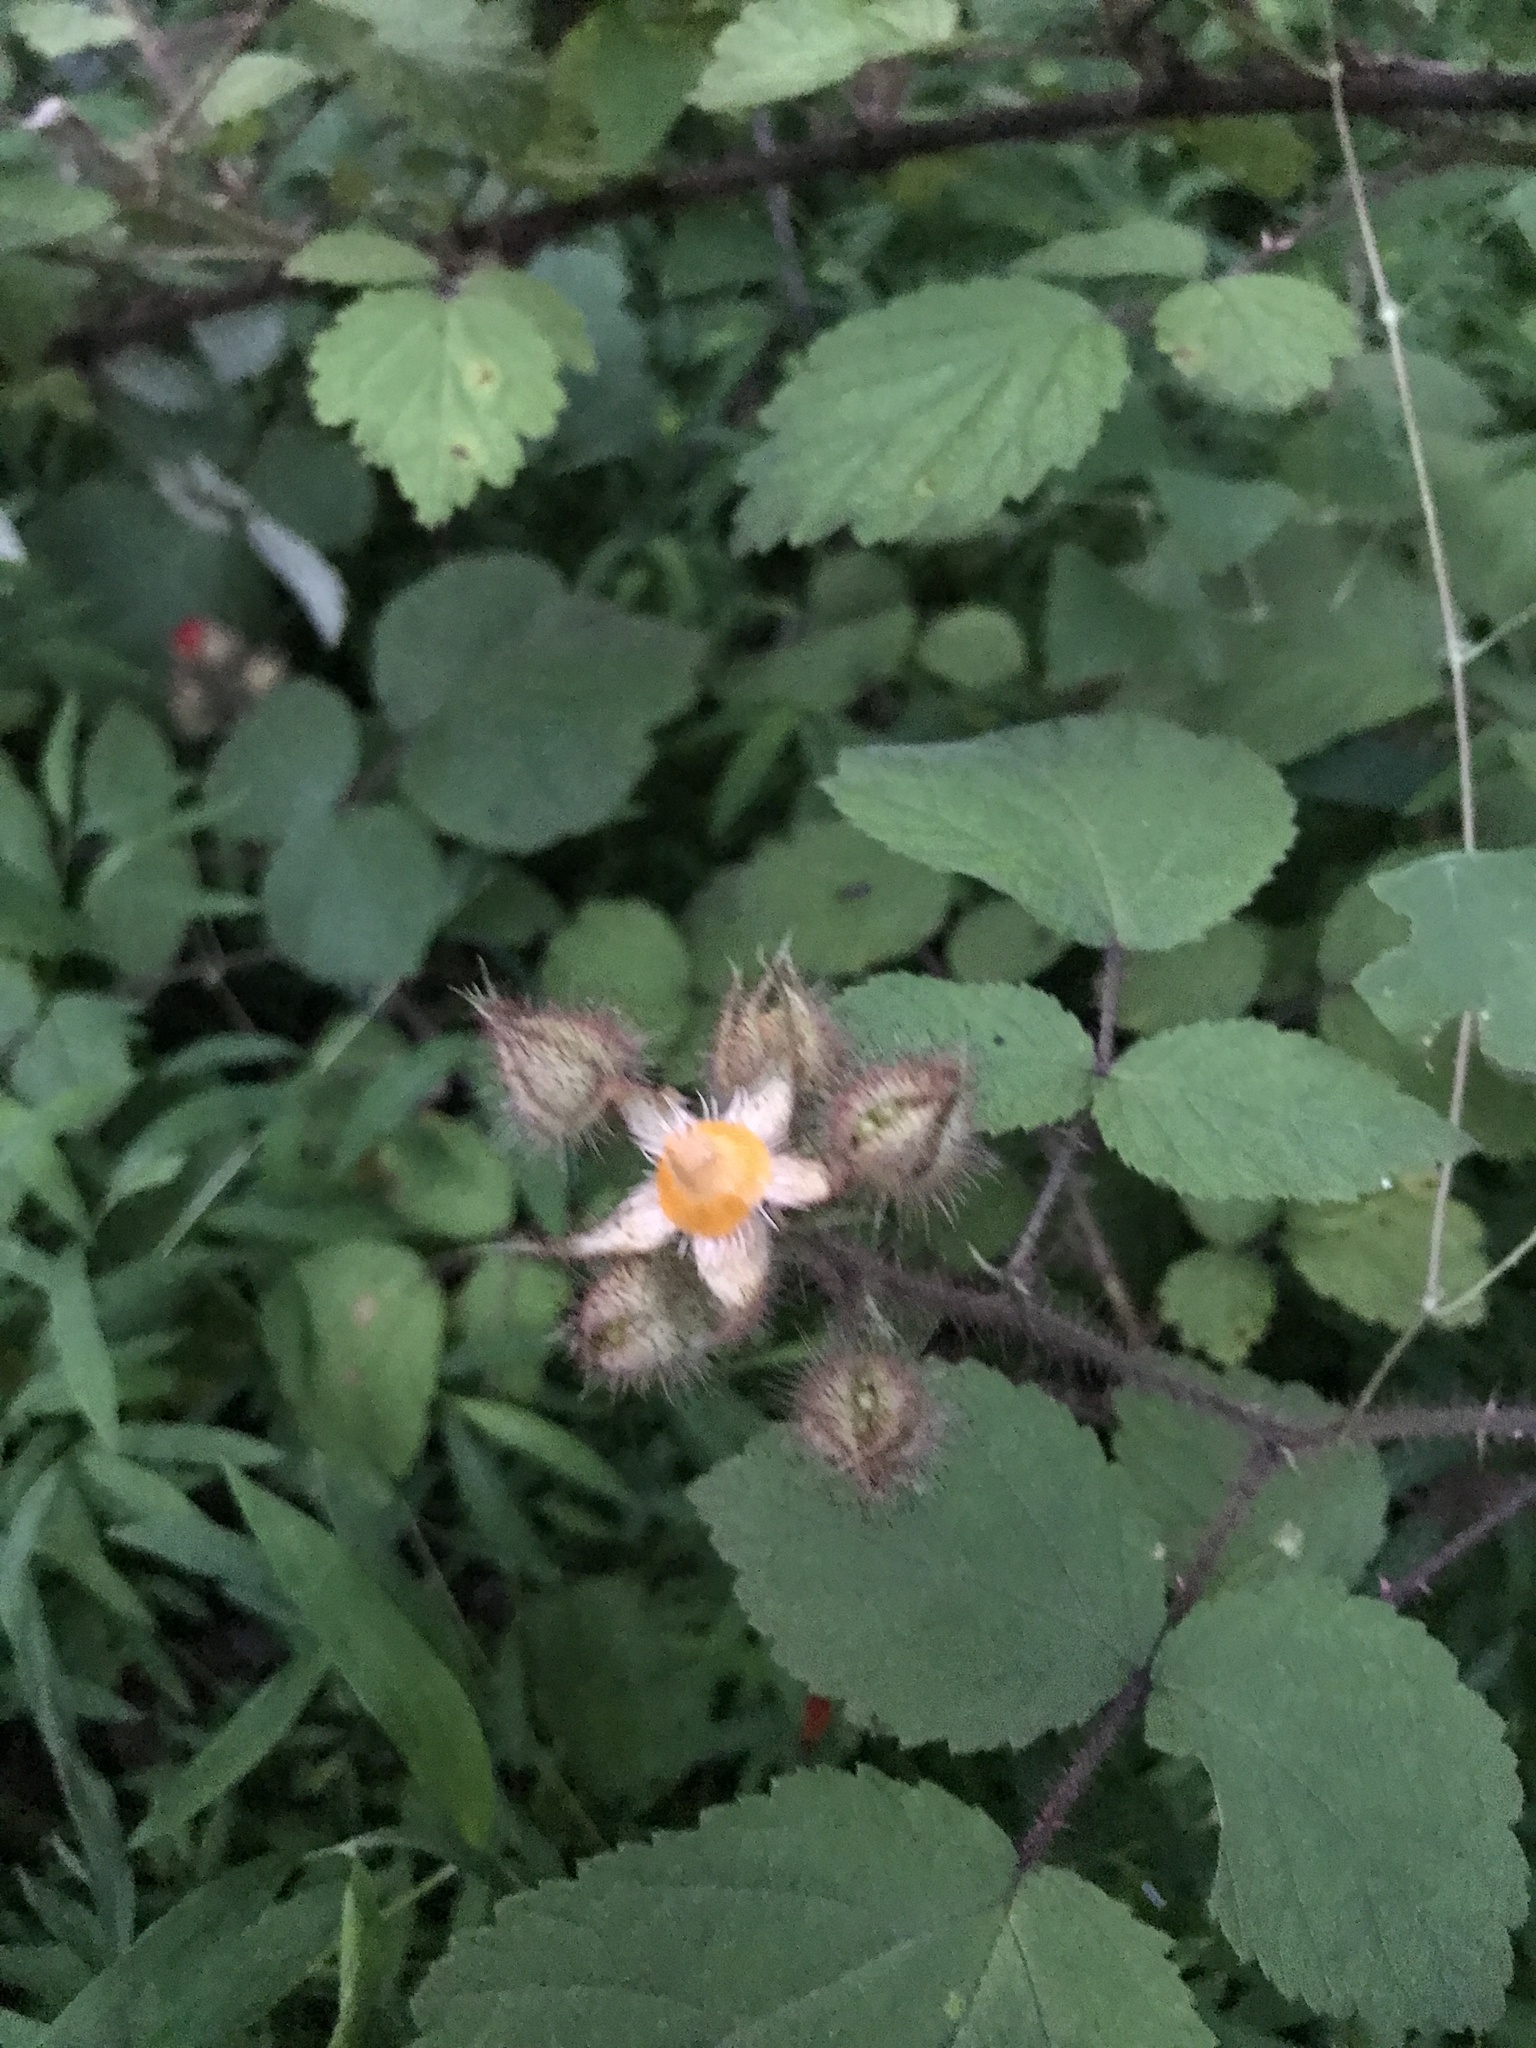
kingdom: Plantae
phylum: Tracheophyta
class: Magnoliopsida
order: Rosales
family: Rosaceae
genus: Rubus
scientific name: Rubus phoenicolasius
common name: Japanese wineberry
